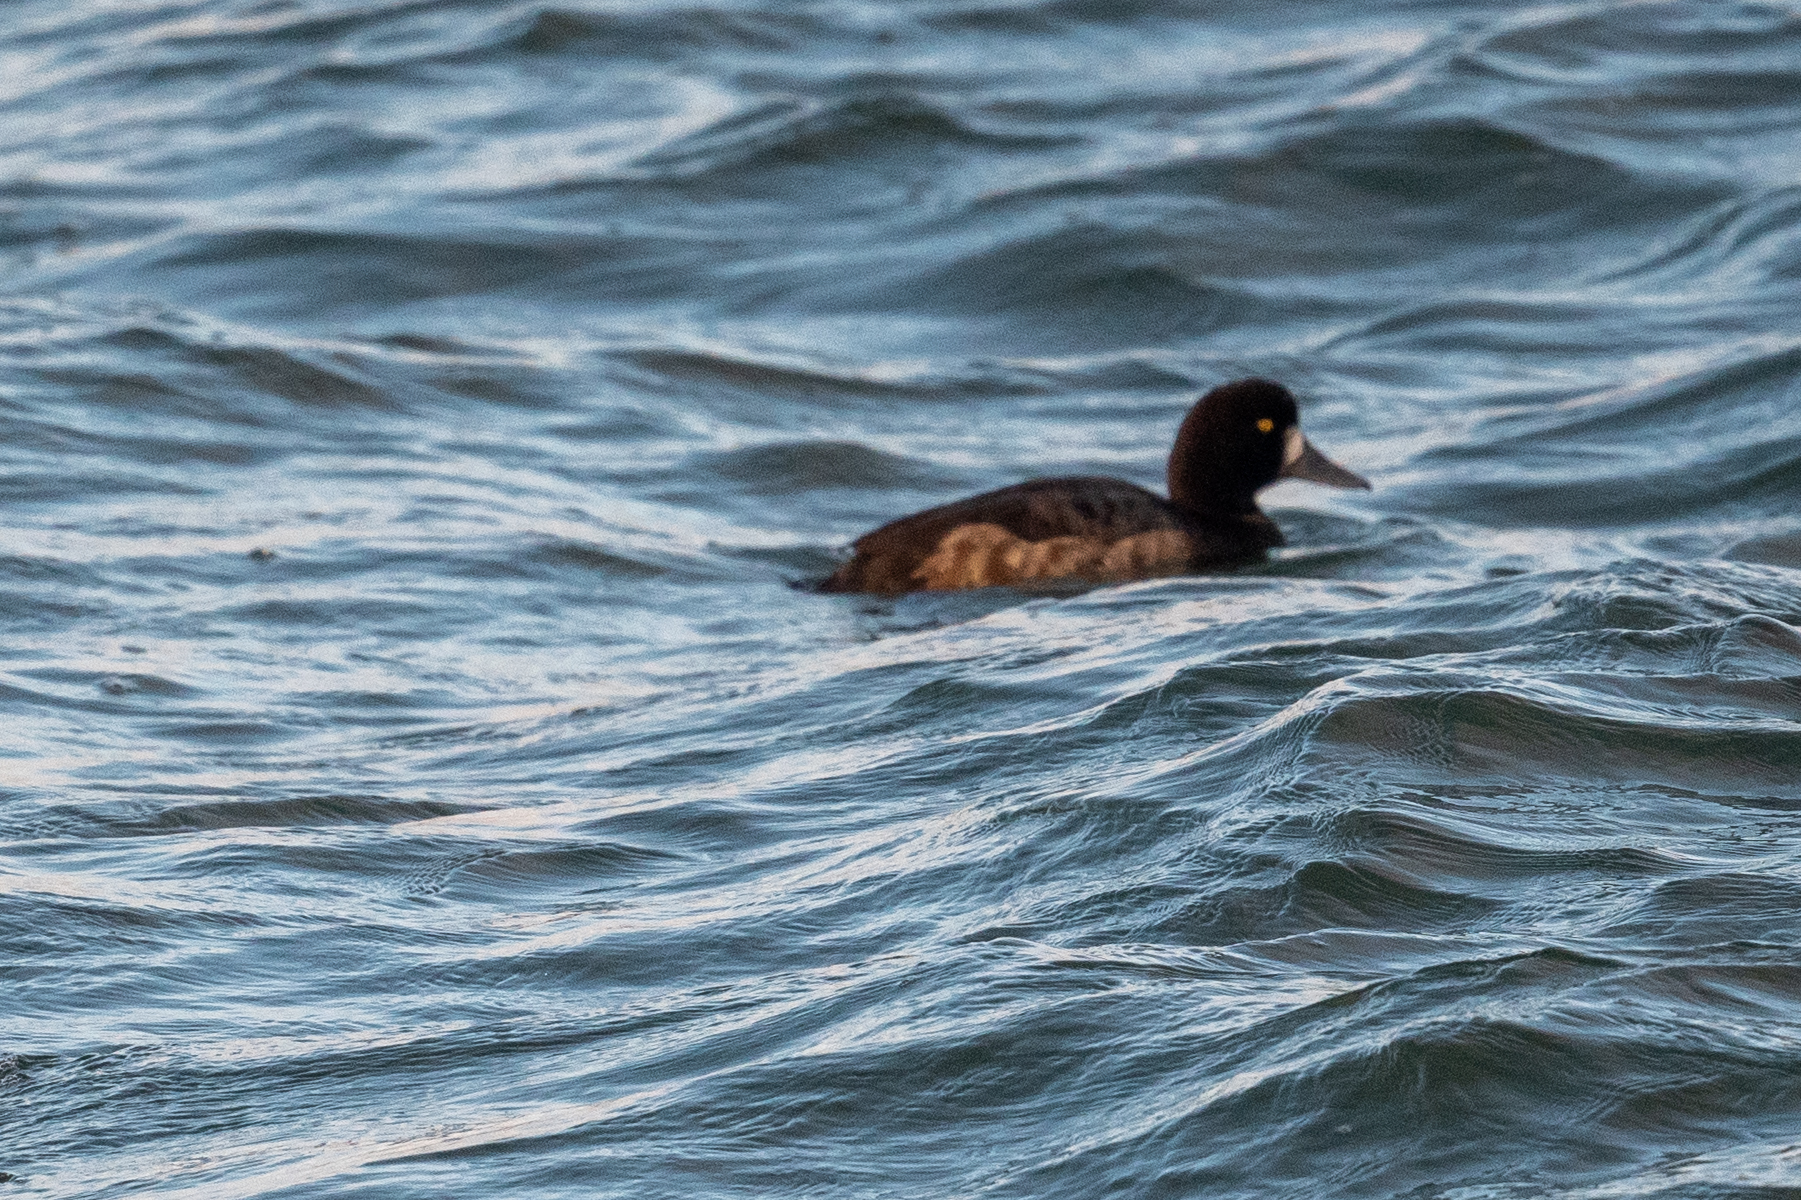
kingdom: Animalia
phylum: Chordata
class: Aves
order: Anseriformes
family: Anatidae
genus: Aythya
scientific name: Aythya marila
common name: Greater scaup
